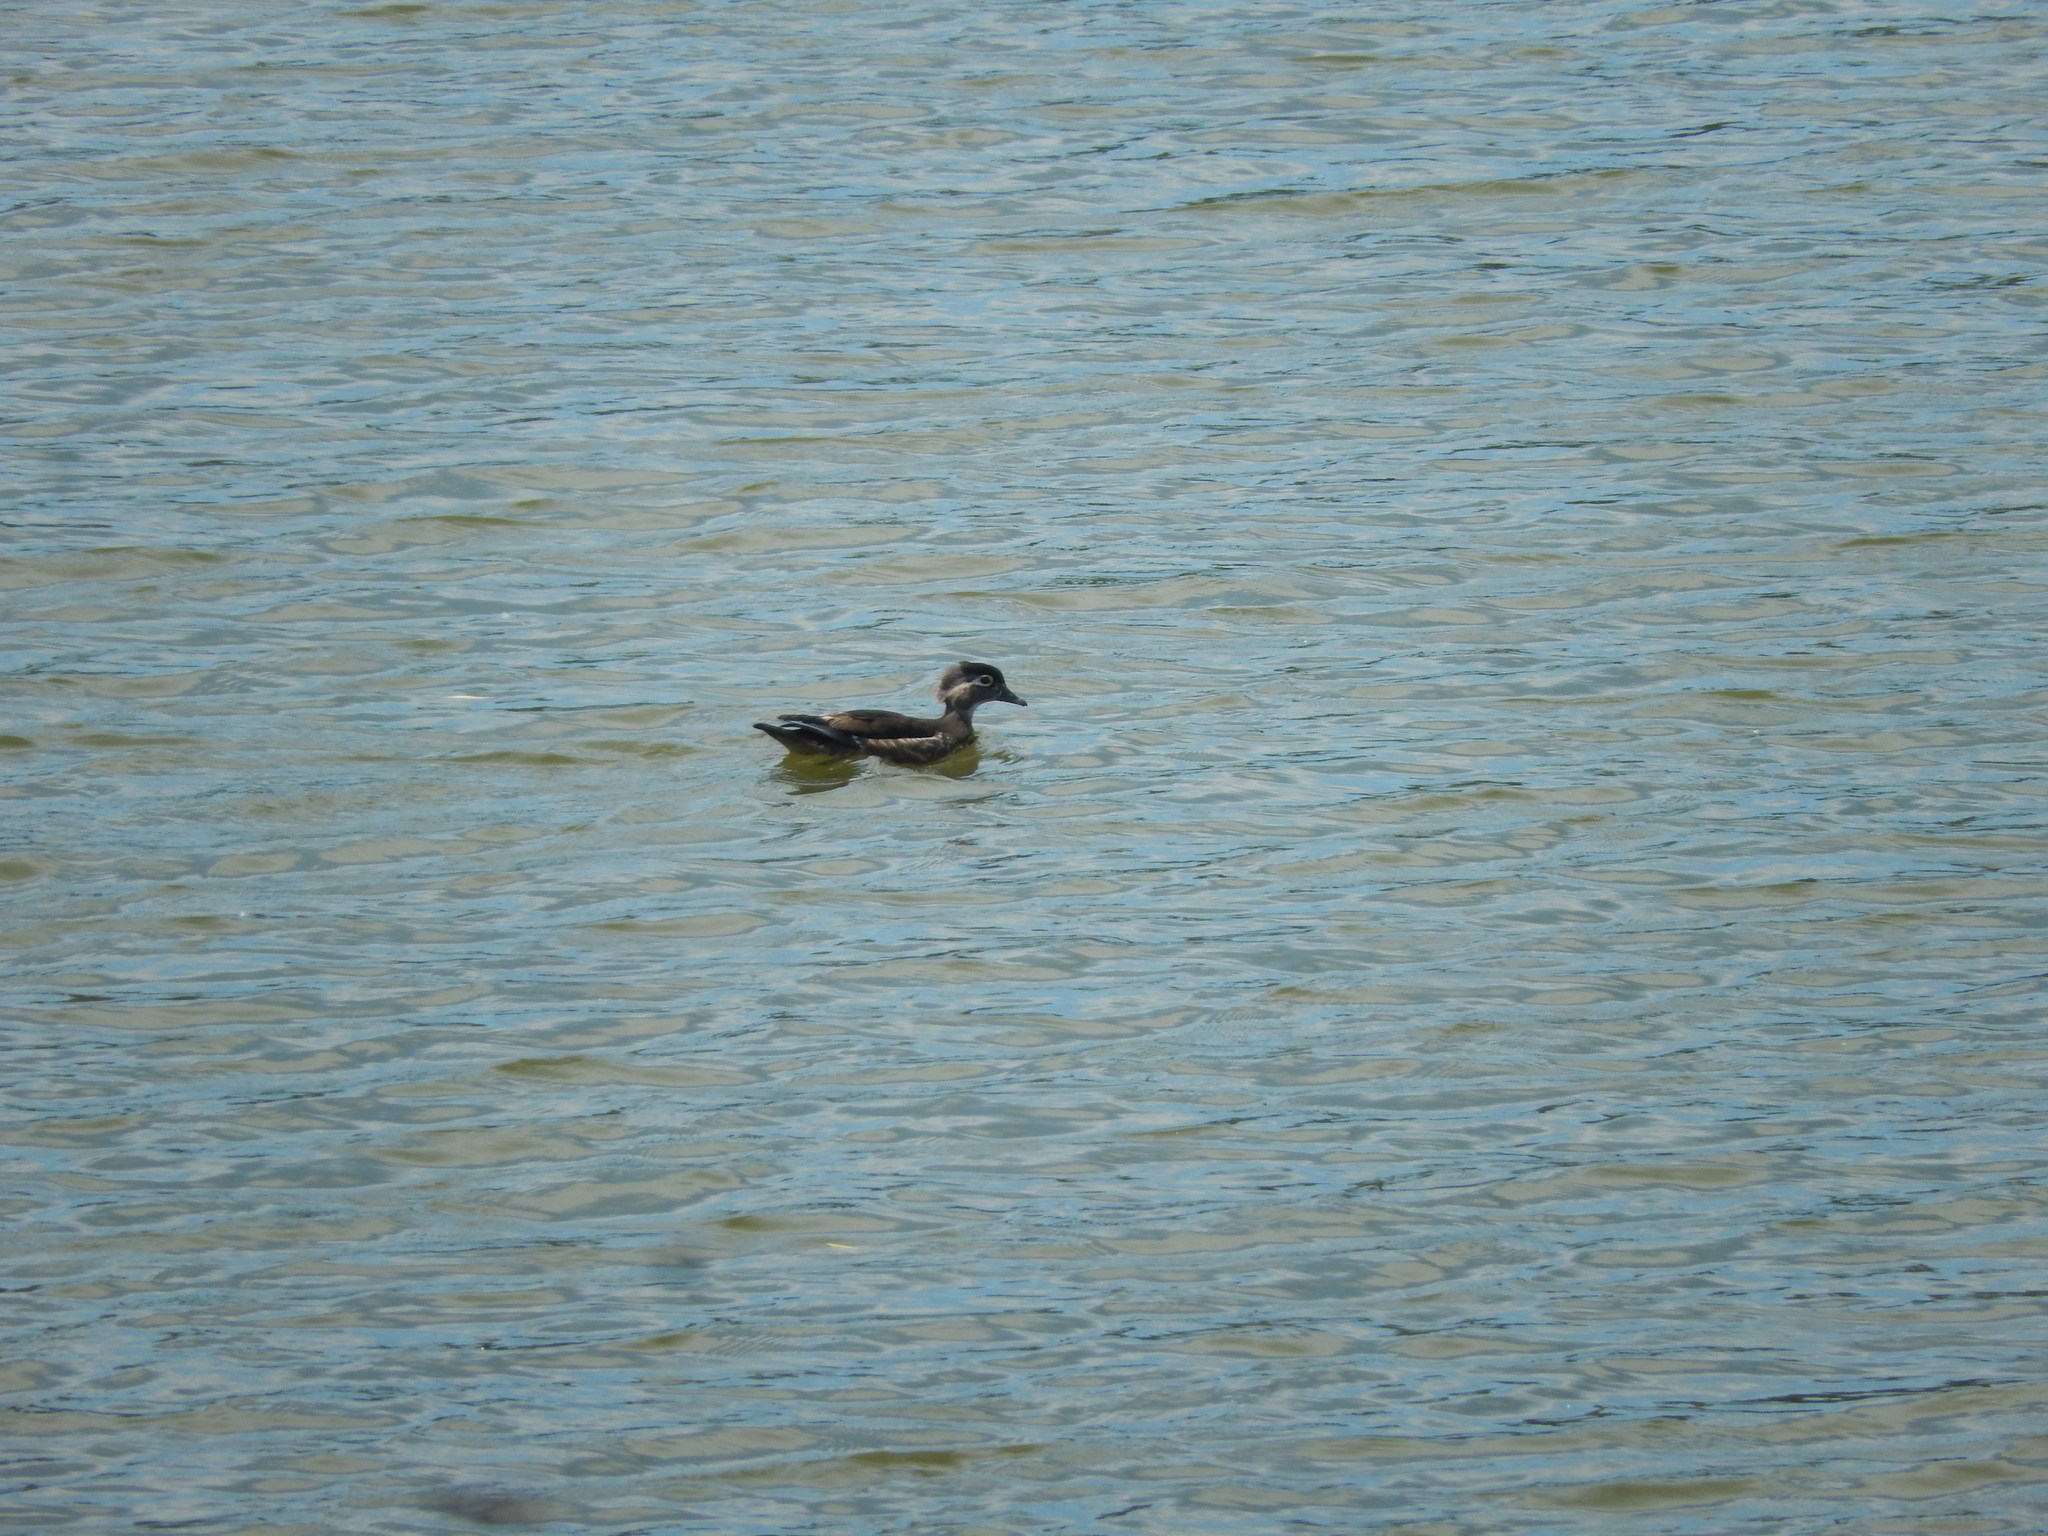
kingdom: Animalia
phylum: Chordata
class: Aves
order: Anseriformes
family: Anatidae
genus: Aix
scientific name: Aix sponsa
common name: Wood duck
